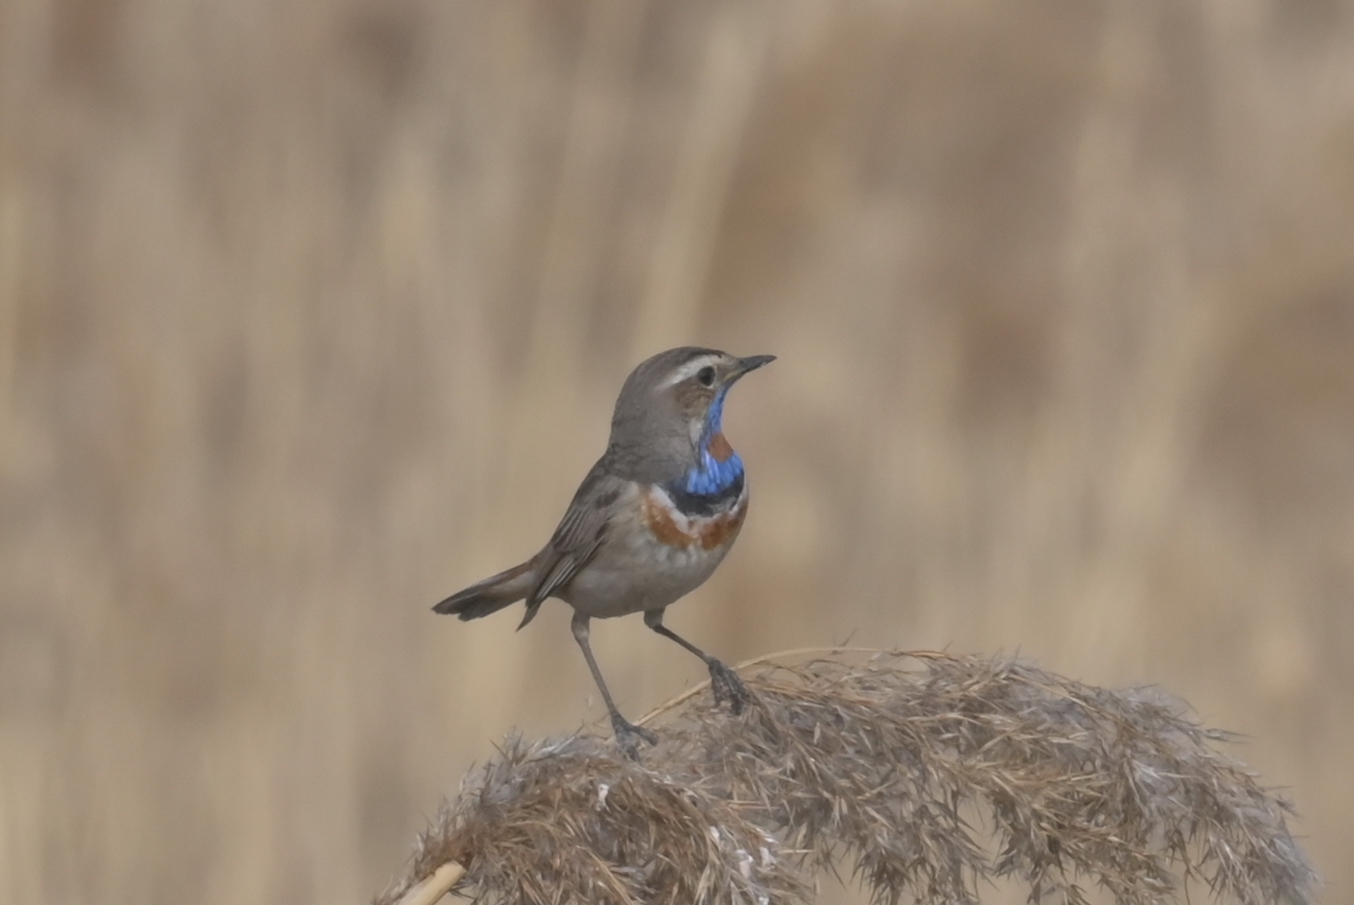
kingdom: Animalia
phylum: Chordata
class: Aves
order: Passeriformes
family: Muscicapidae
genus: Luscinia
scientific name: Luscinia svecica
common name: Bluethroat
